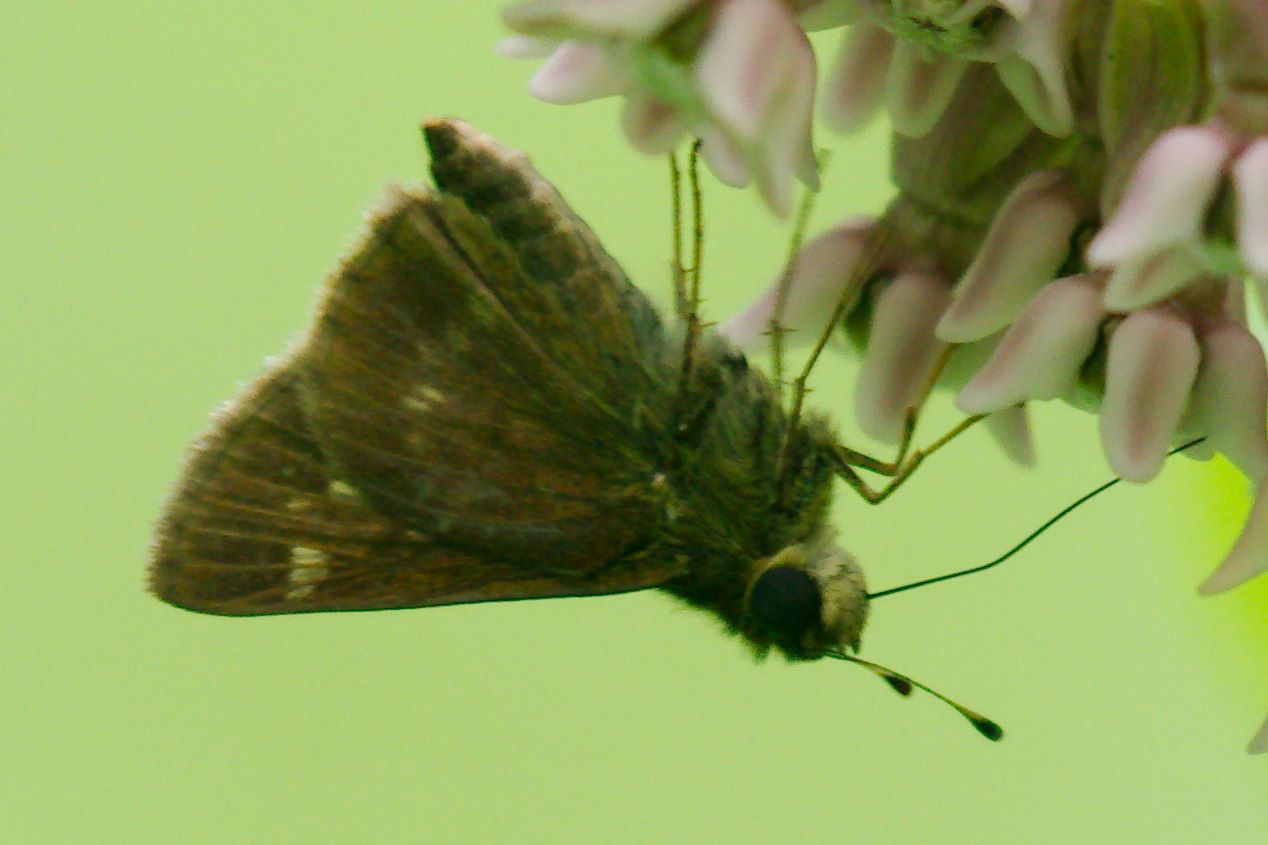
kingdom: Animalia
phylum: Arthropoda
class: Insecta
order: Lepidoptera
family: Hesperiidae
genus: Vernia
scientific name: Vernia verna
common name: Little glassywing
